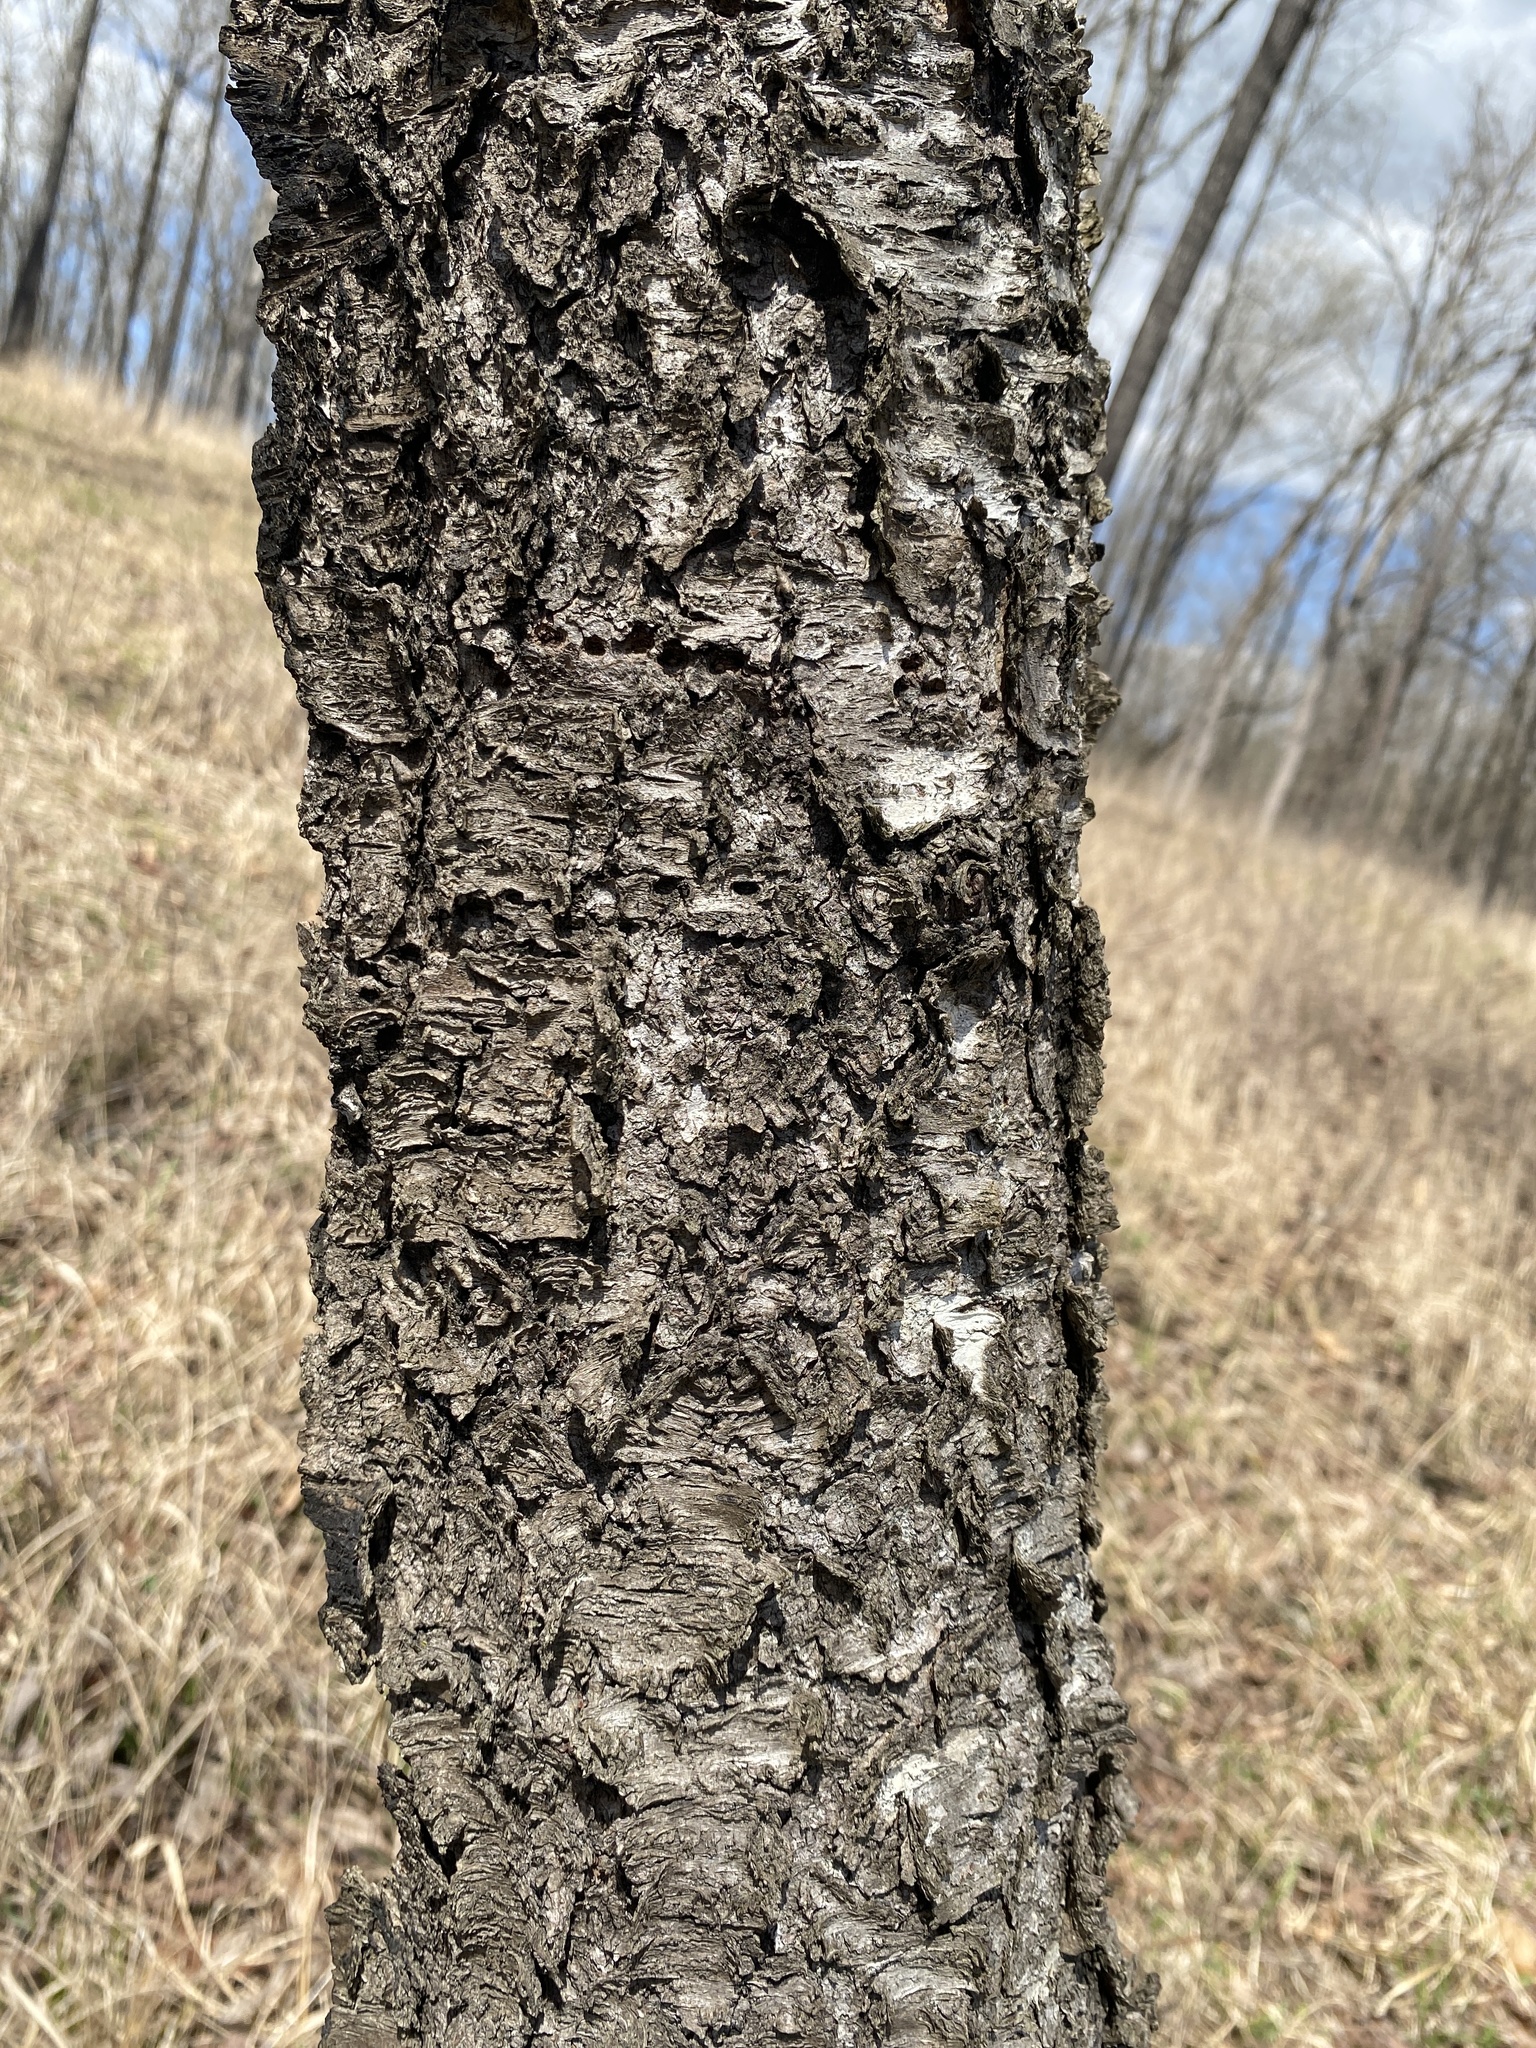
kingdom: Plantae
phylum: Tracheophyta
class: Magnoliopsida
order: Rosales
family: Rosaceae
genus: Prunus
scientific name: Prunus serotina
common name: Black cherry
